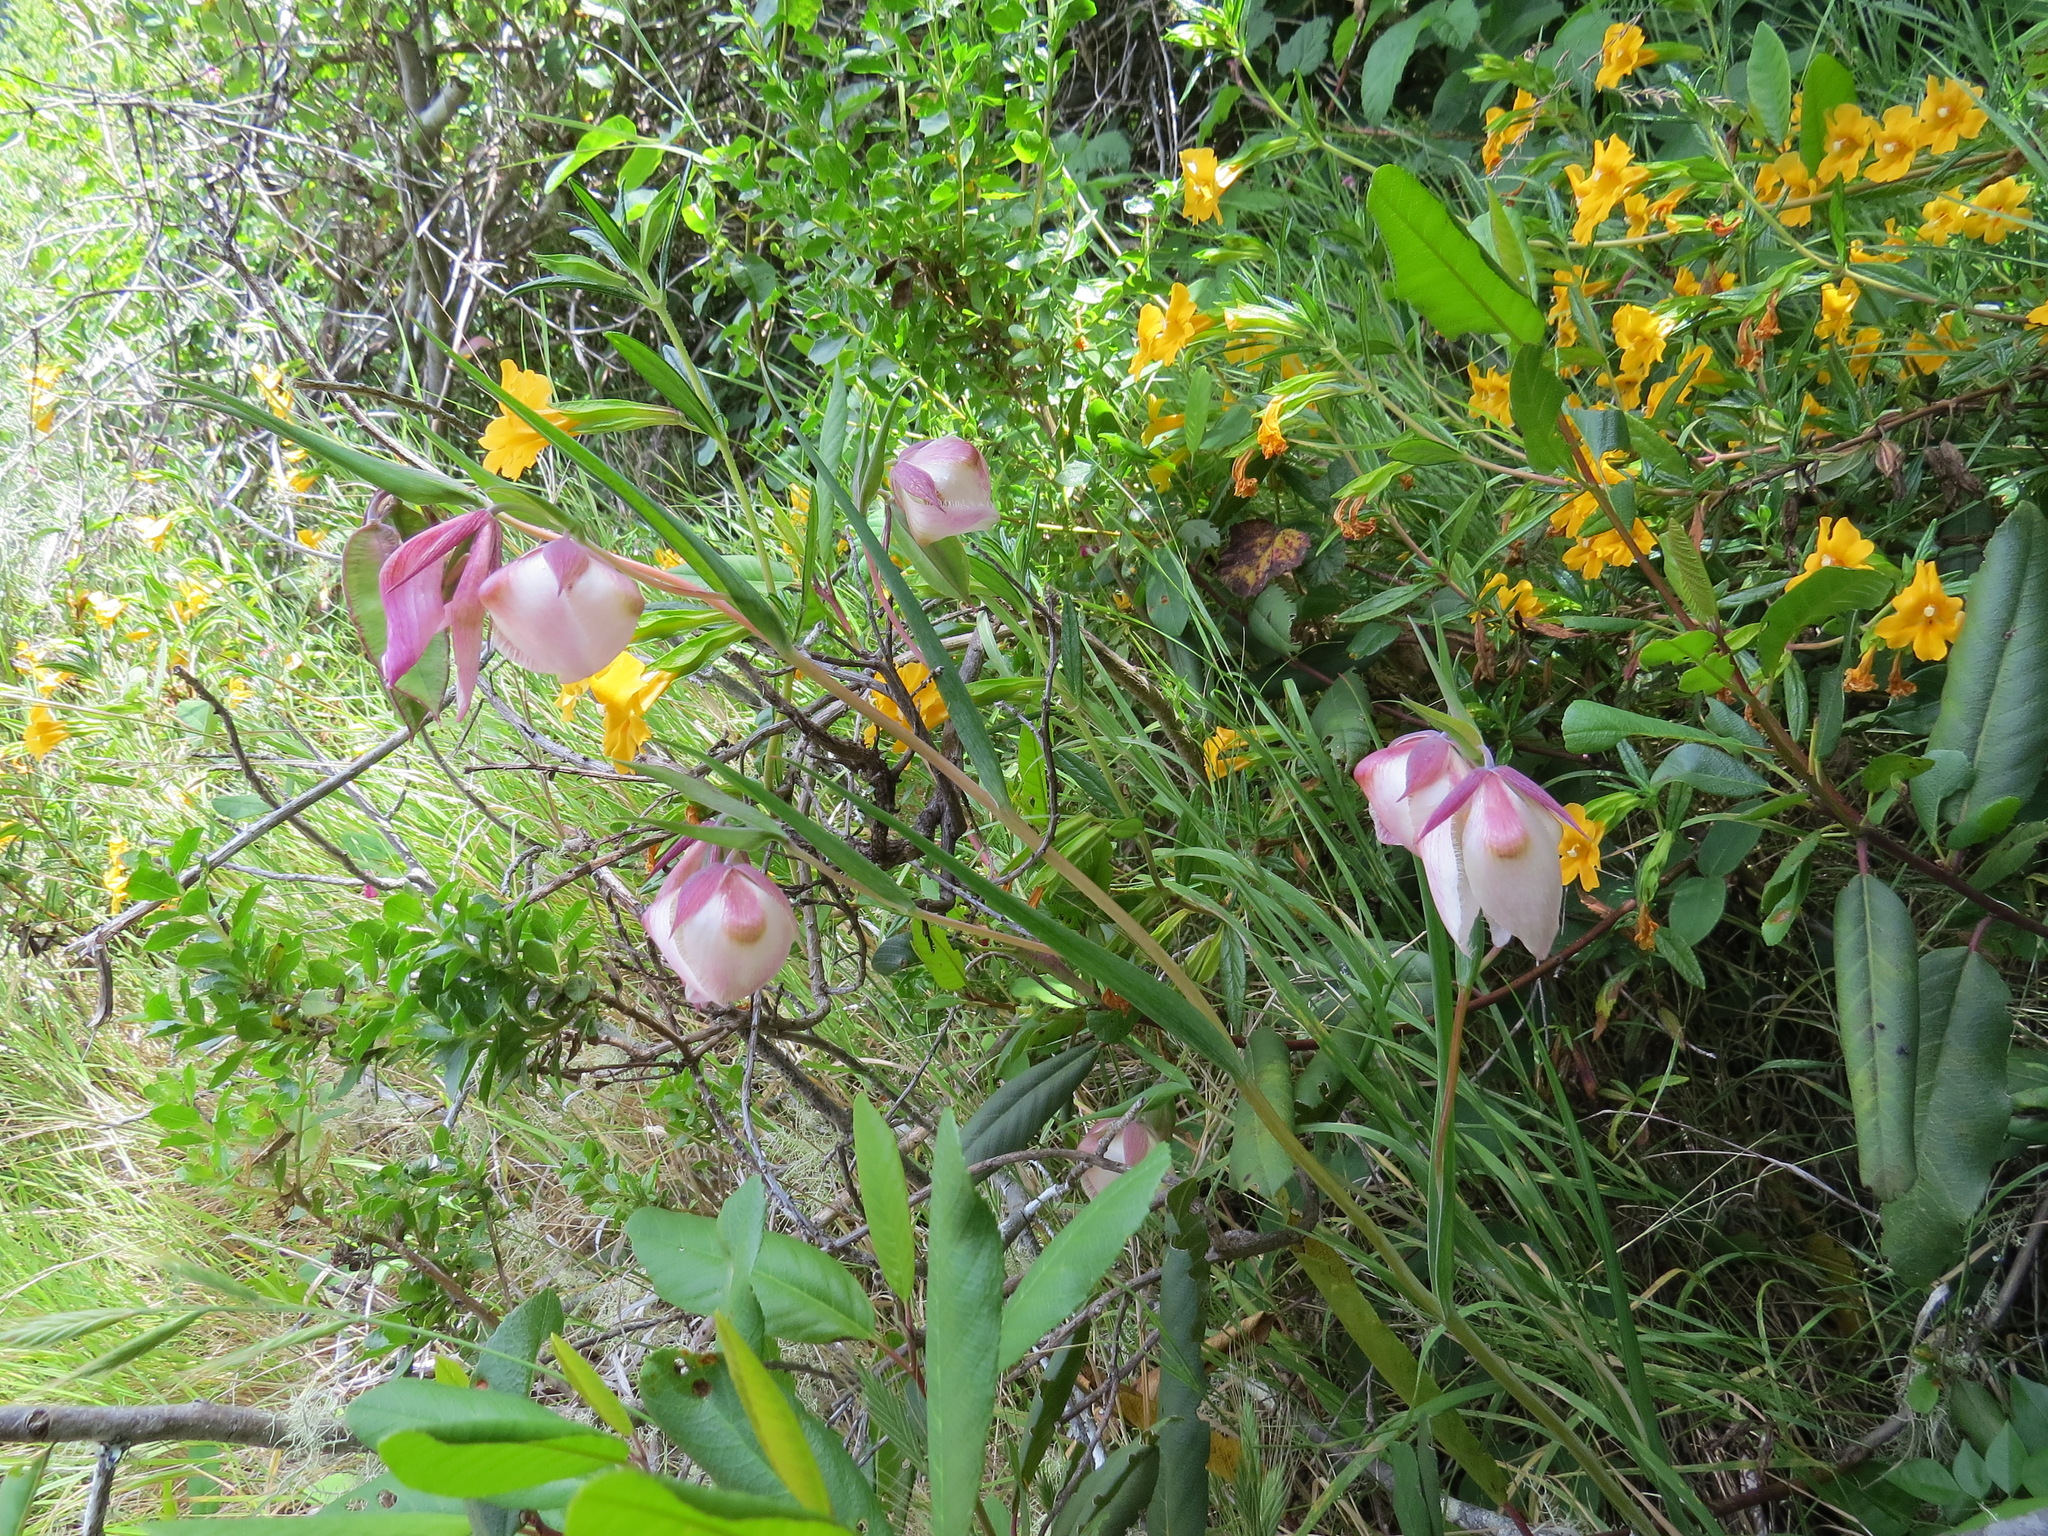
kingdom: Plantae
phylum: Tracheophyta
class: Liliopsida
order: Liliales
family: Liliaceae
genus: Calochortus
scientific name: Calochortus albus
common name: Fairy-lantern
